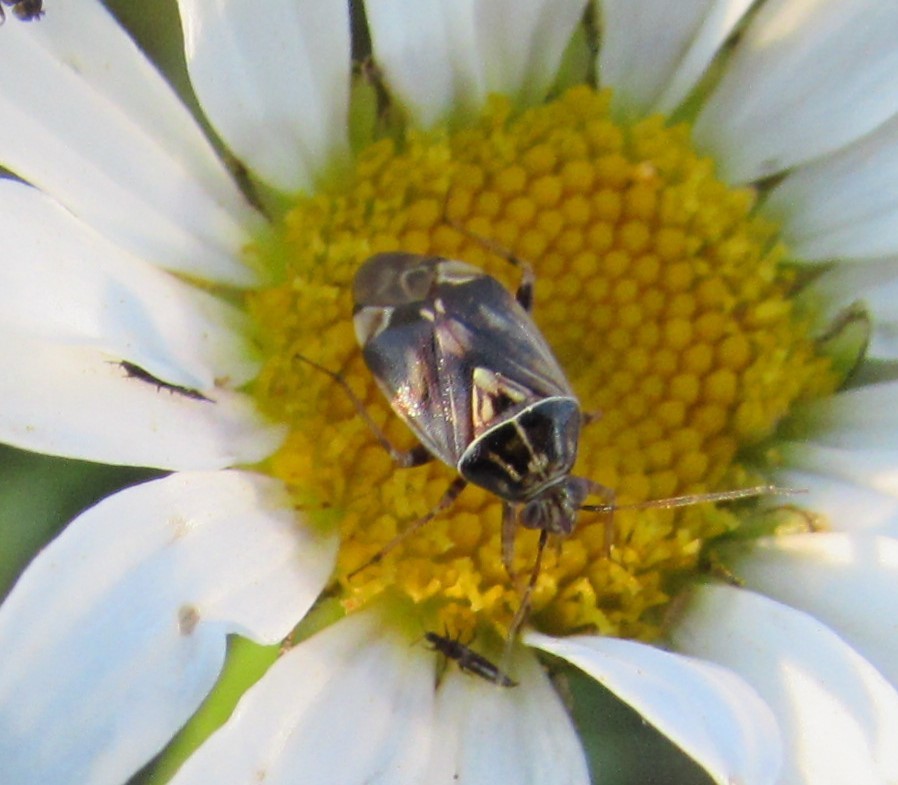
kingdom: Animalia
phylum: Arthropoda
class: Insecta
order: Hemiptera
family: Miridae
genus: Lygus
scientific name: Lygus lineolaris
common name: North american tarnished plant bug
